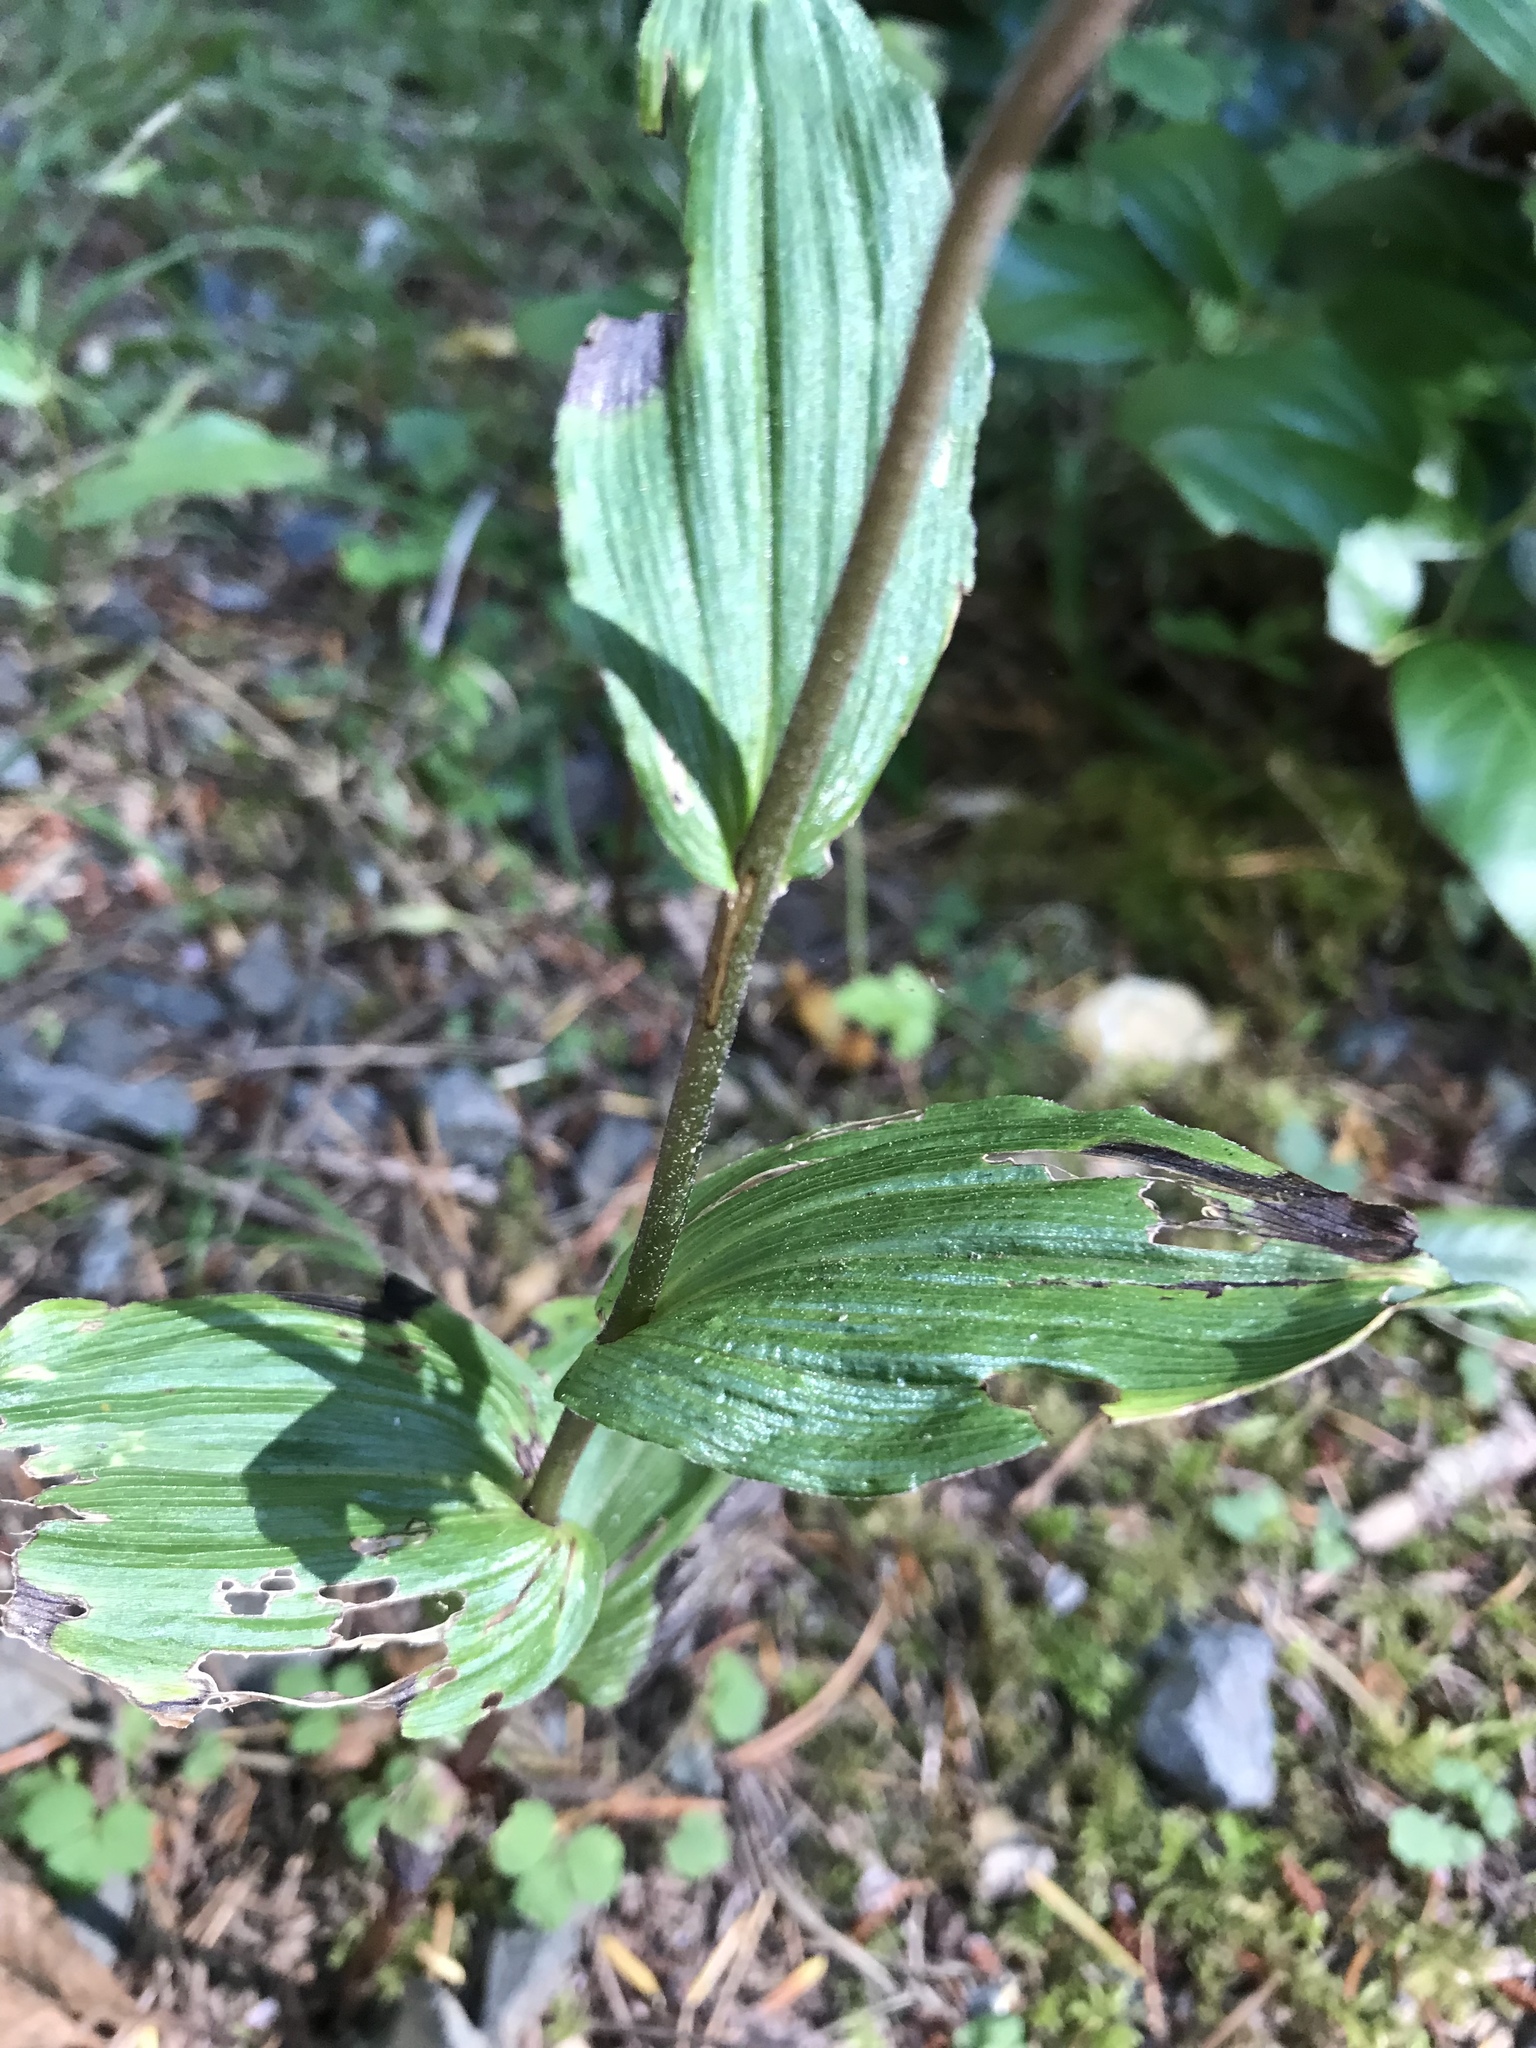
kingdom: Plantae
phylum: Tracheophyta
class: Liliopsida
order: Asparagales
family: Orchidaceae
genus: Epipactis
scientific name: Epipactis helleborine
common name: Broad-leaved helleborine
